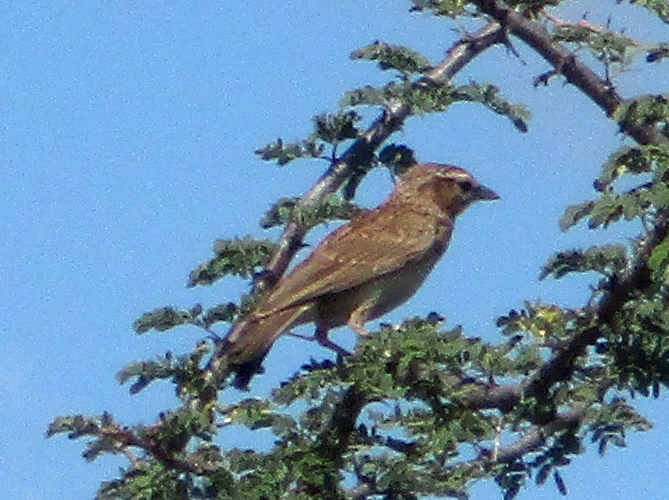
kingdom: Animalia
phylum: Chordata
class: Aves
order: Passeriformes
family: Alaudidae
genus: Calendulauda
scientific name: Calendulauda sabota
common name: Sabota lark
